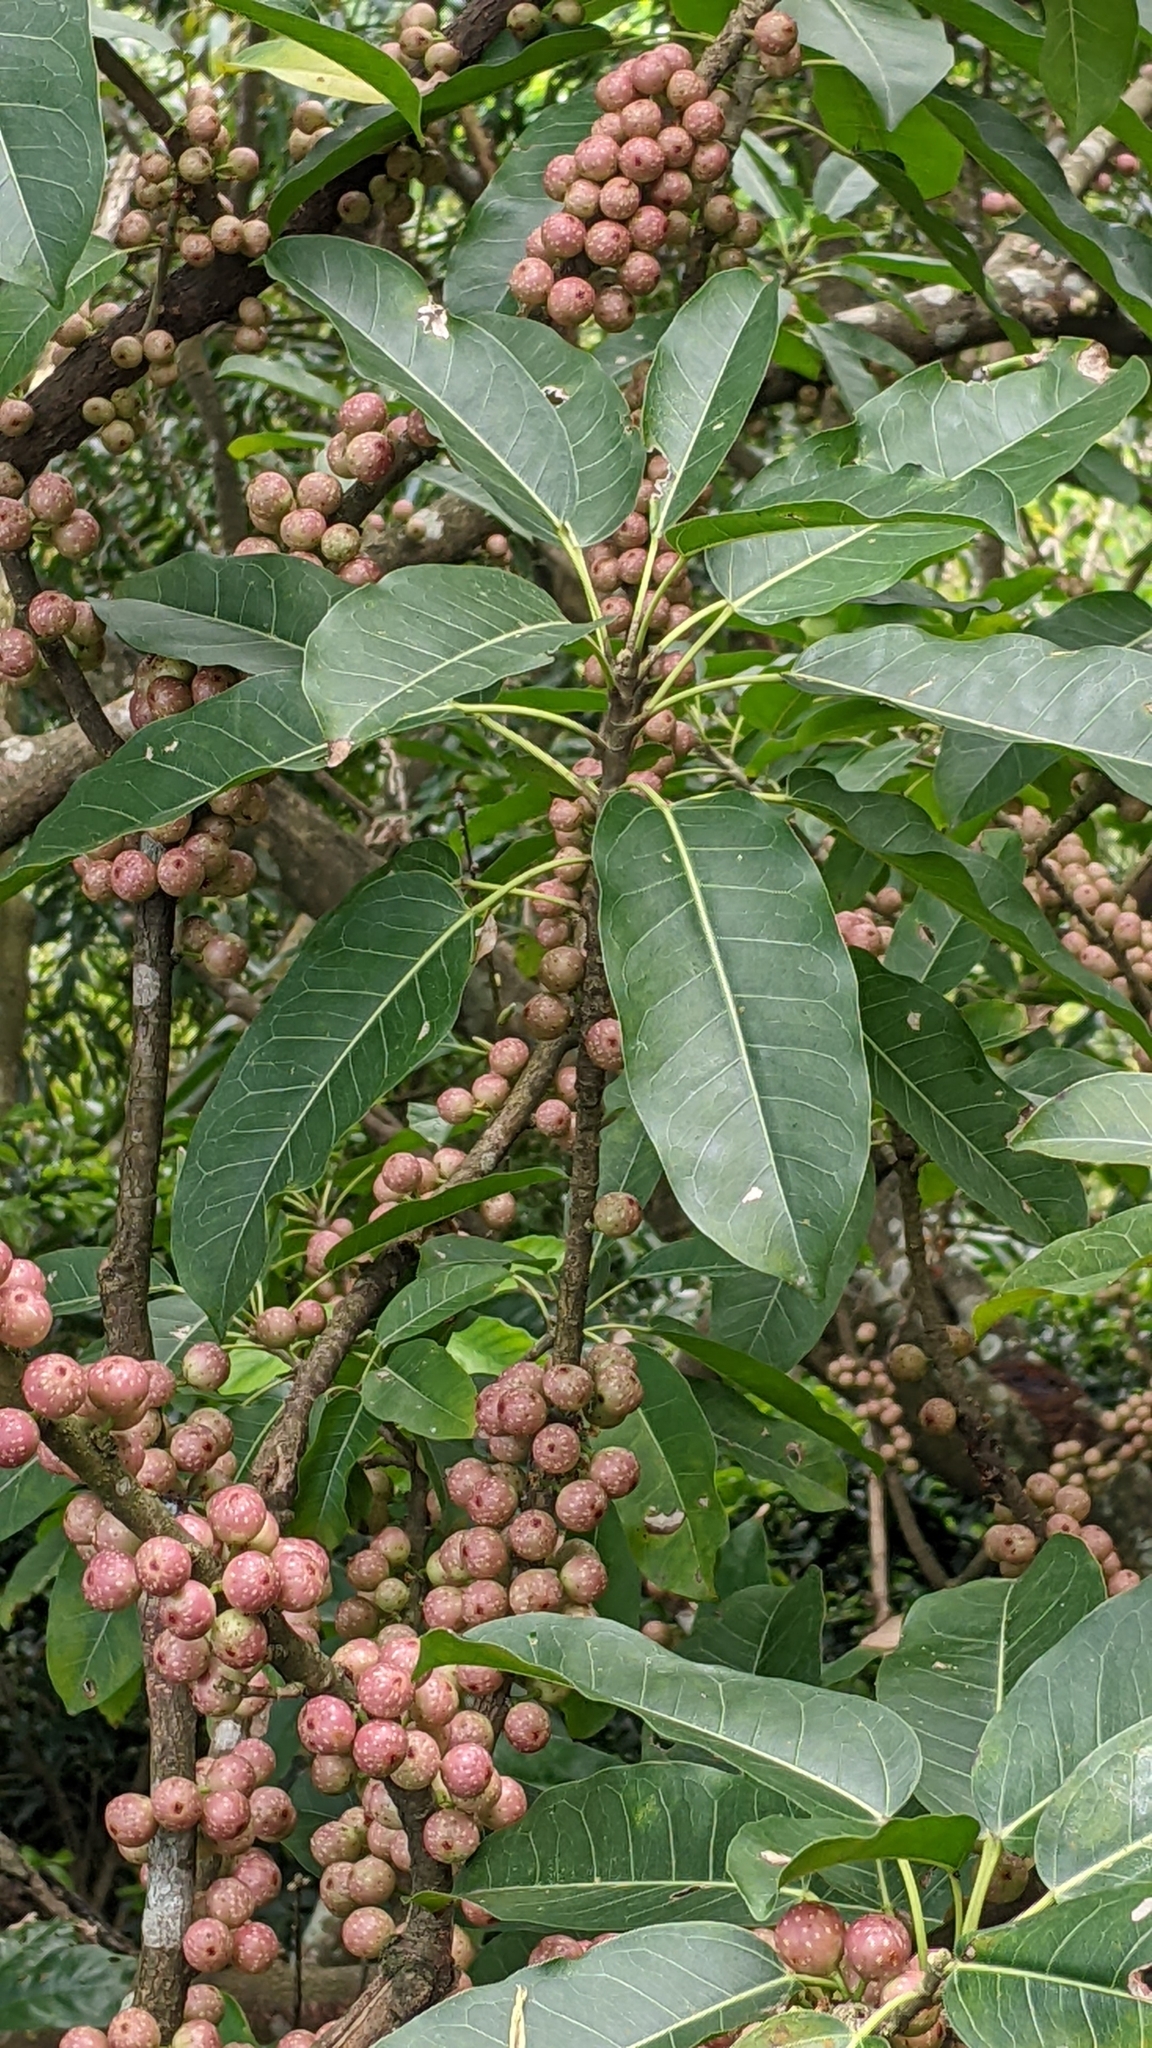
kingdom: Plantae
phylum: Tracheophyta
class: Magnoliopsida
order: Rosales
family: Moraceae
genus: Ficus
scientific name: Ficus subpisocarpa
